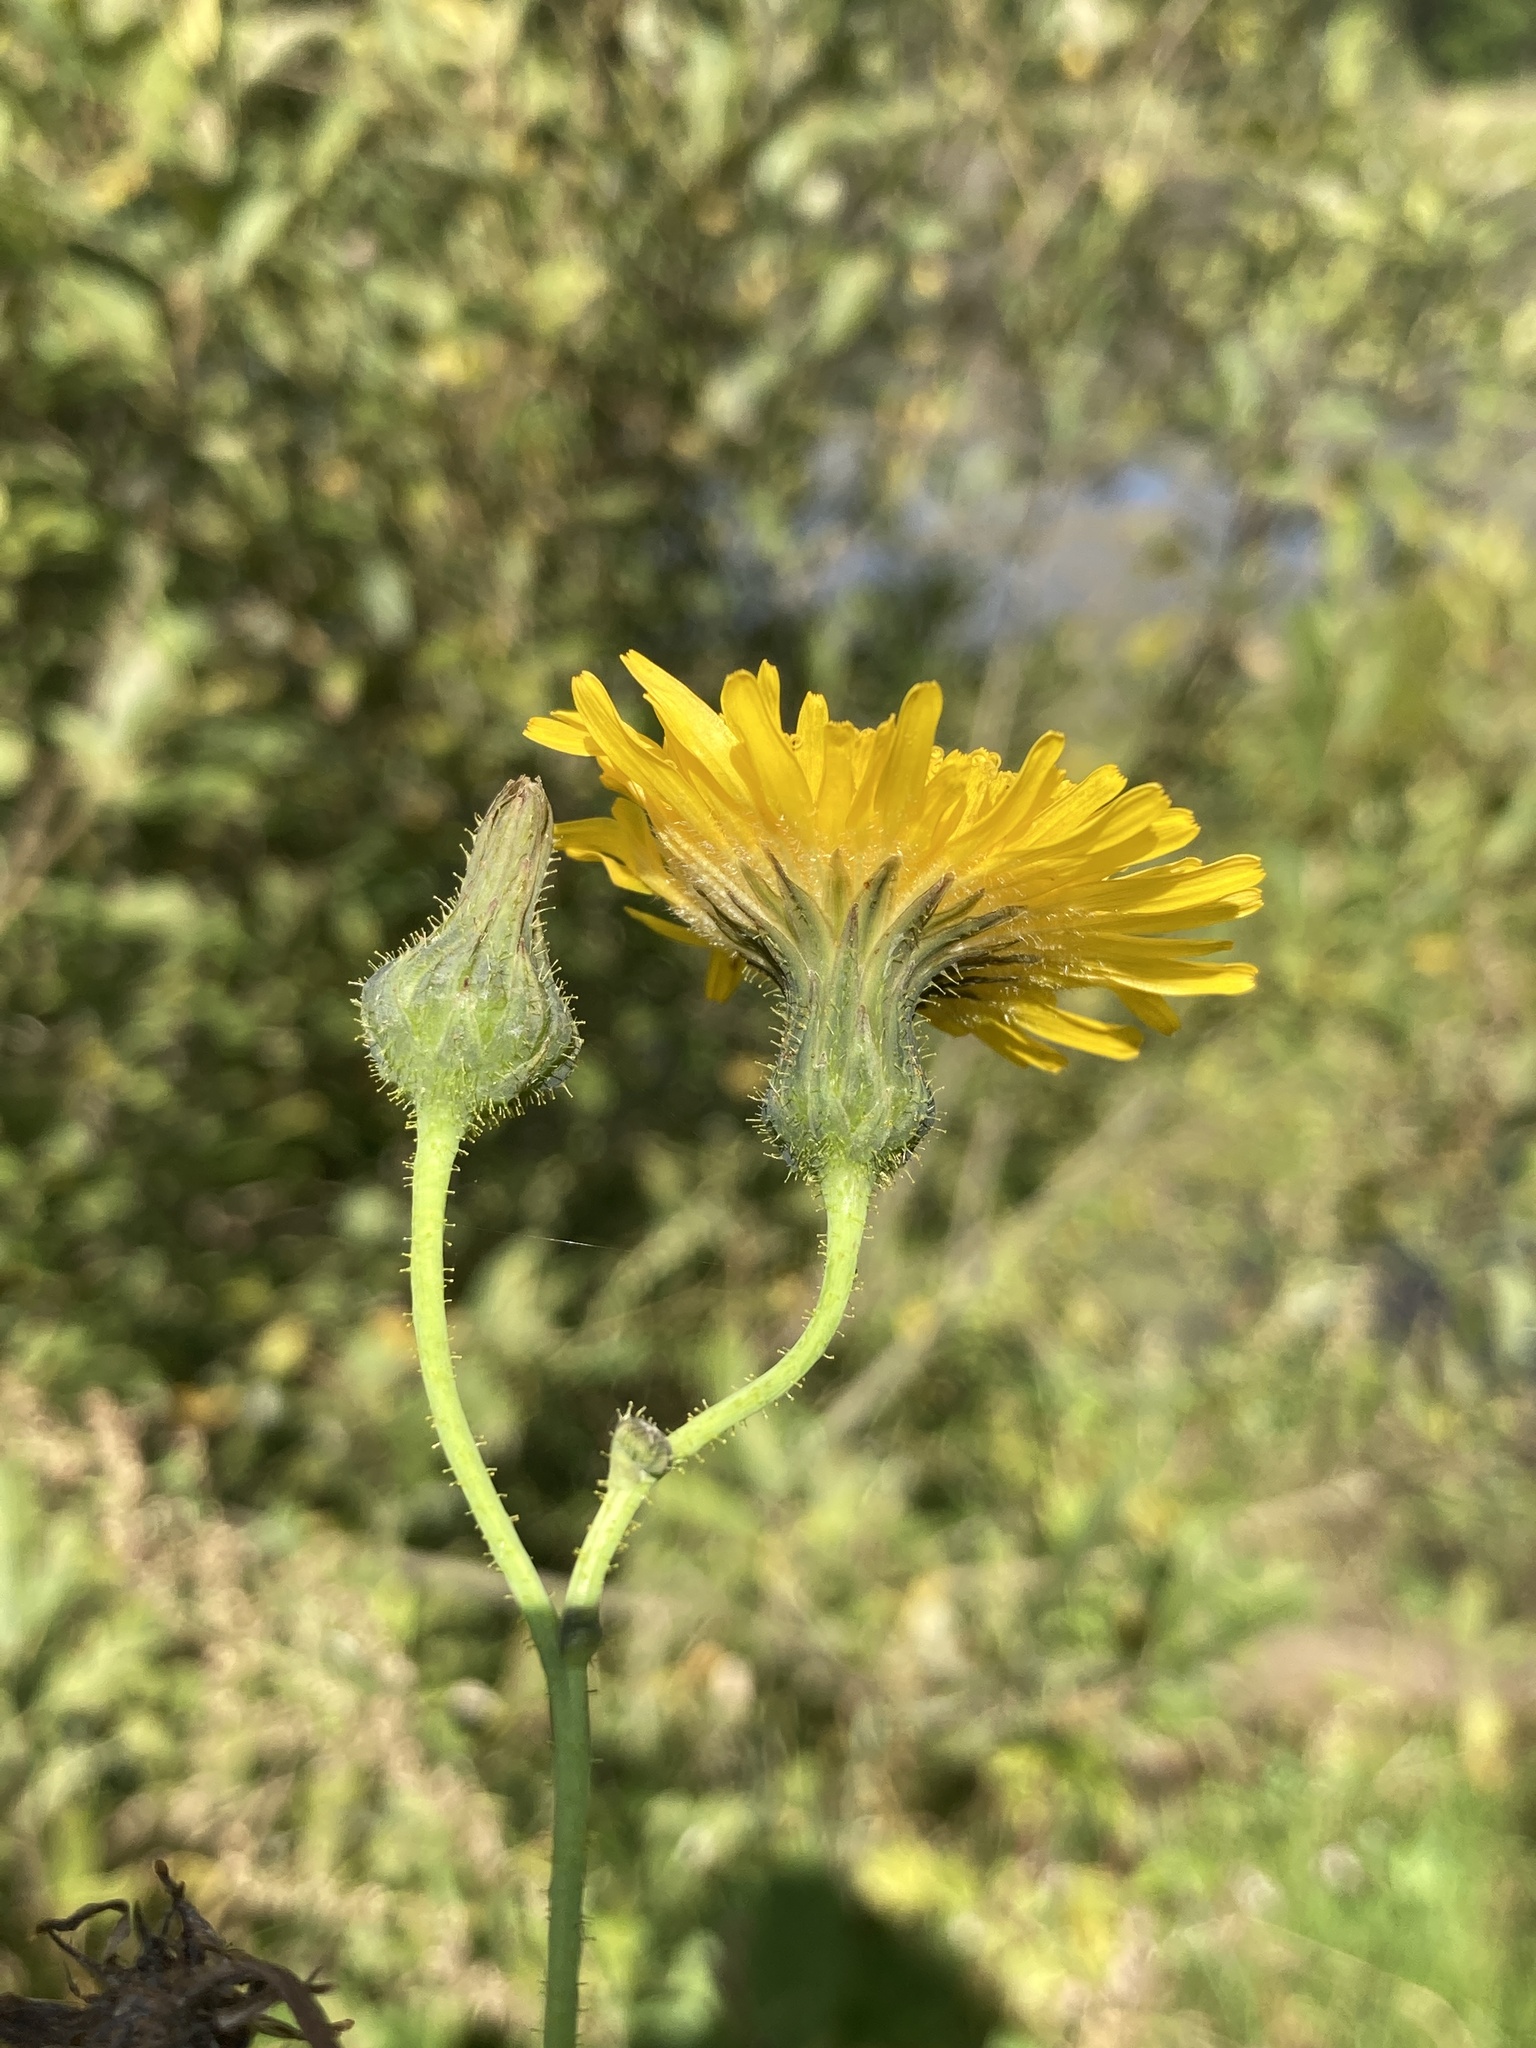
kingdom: Plantae
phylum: Tracheophyta
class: Magnoliopsida
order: Asterales
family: Asteraceae
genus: Sonchus
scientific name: Sonchus arvensis
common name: Perennial sow-thistle
